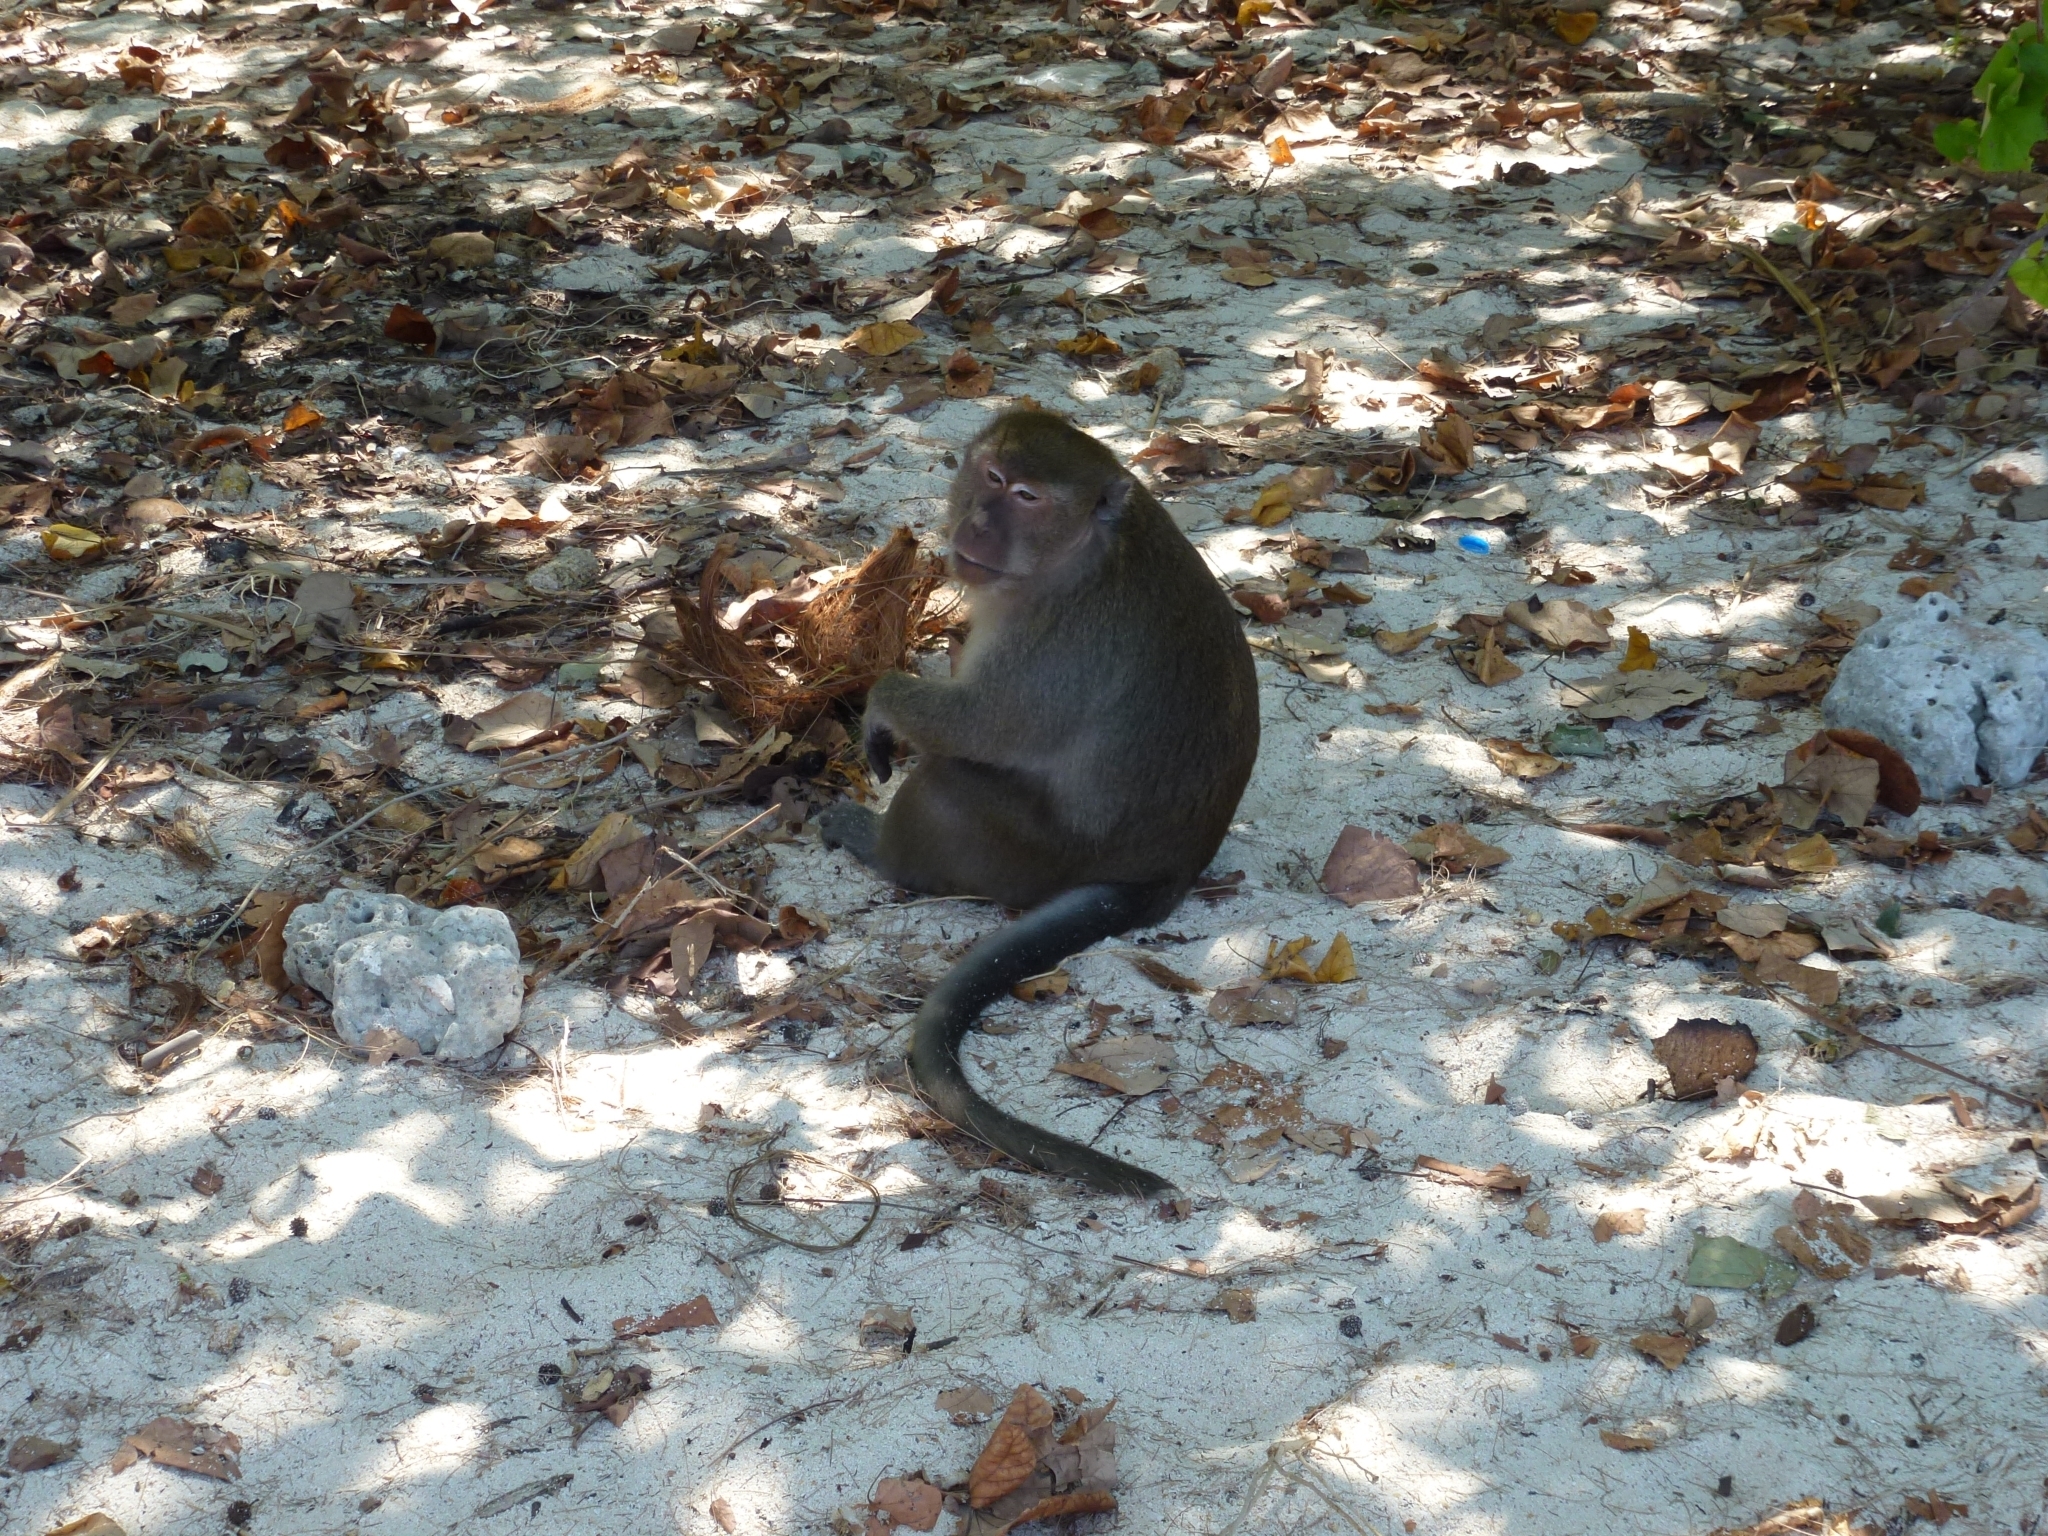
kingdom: Animalia
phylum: Chordata
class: Mammalia
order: Primates
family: Cercopithecidae
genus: Macaca
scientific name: Macaca fascicularis
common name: Crab-eating macaque
